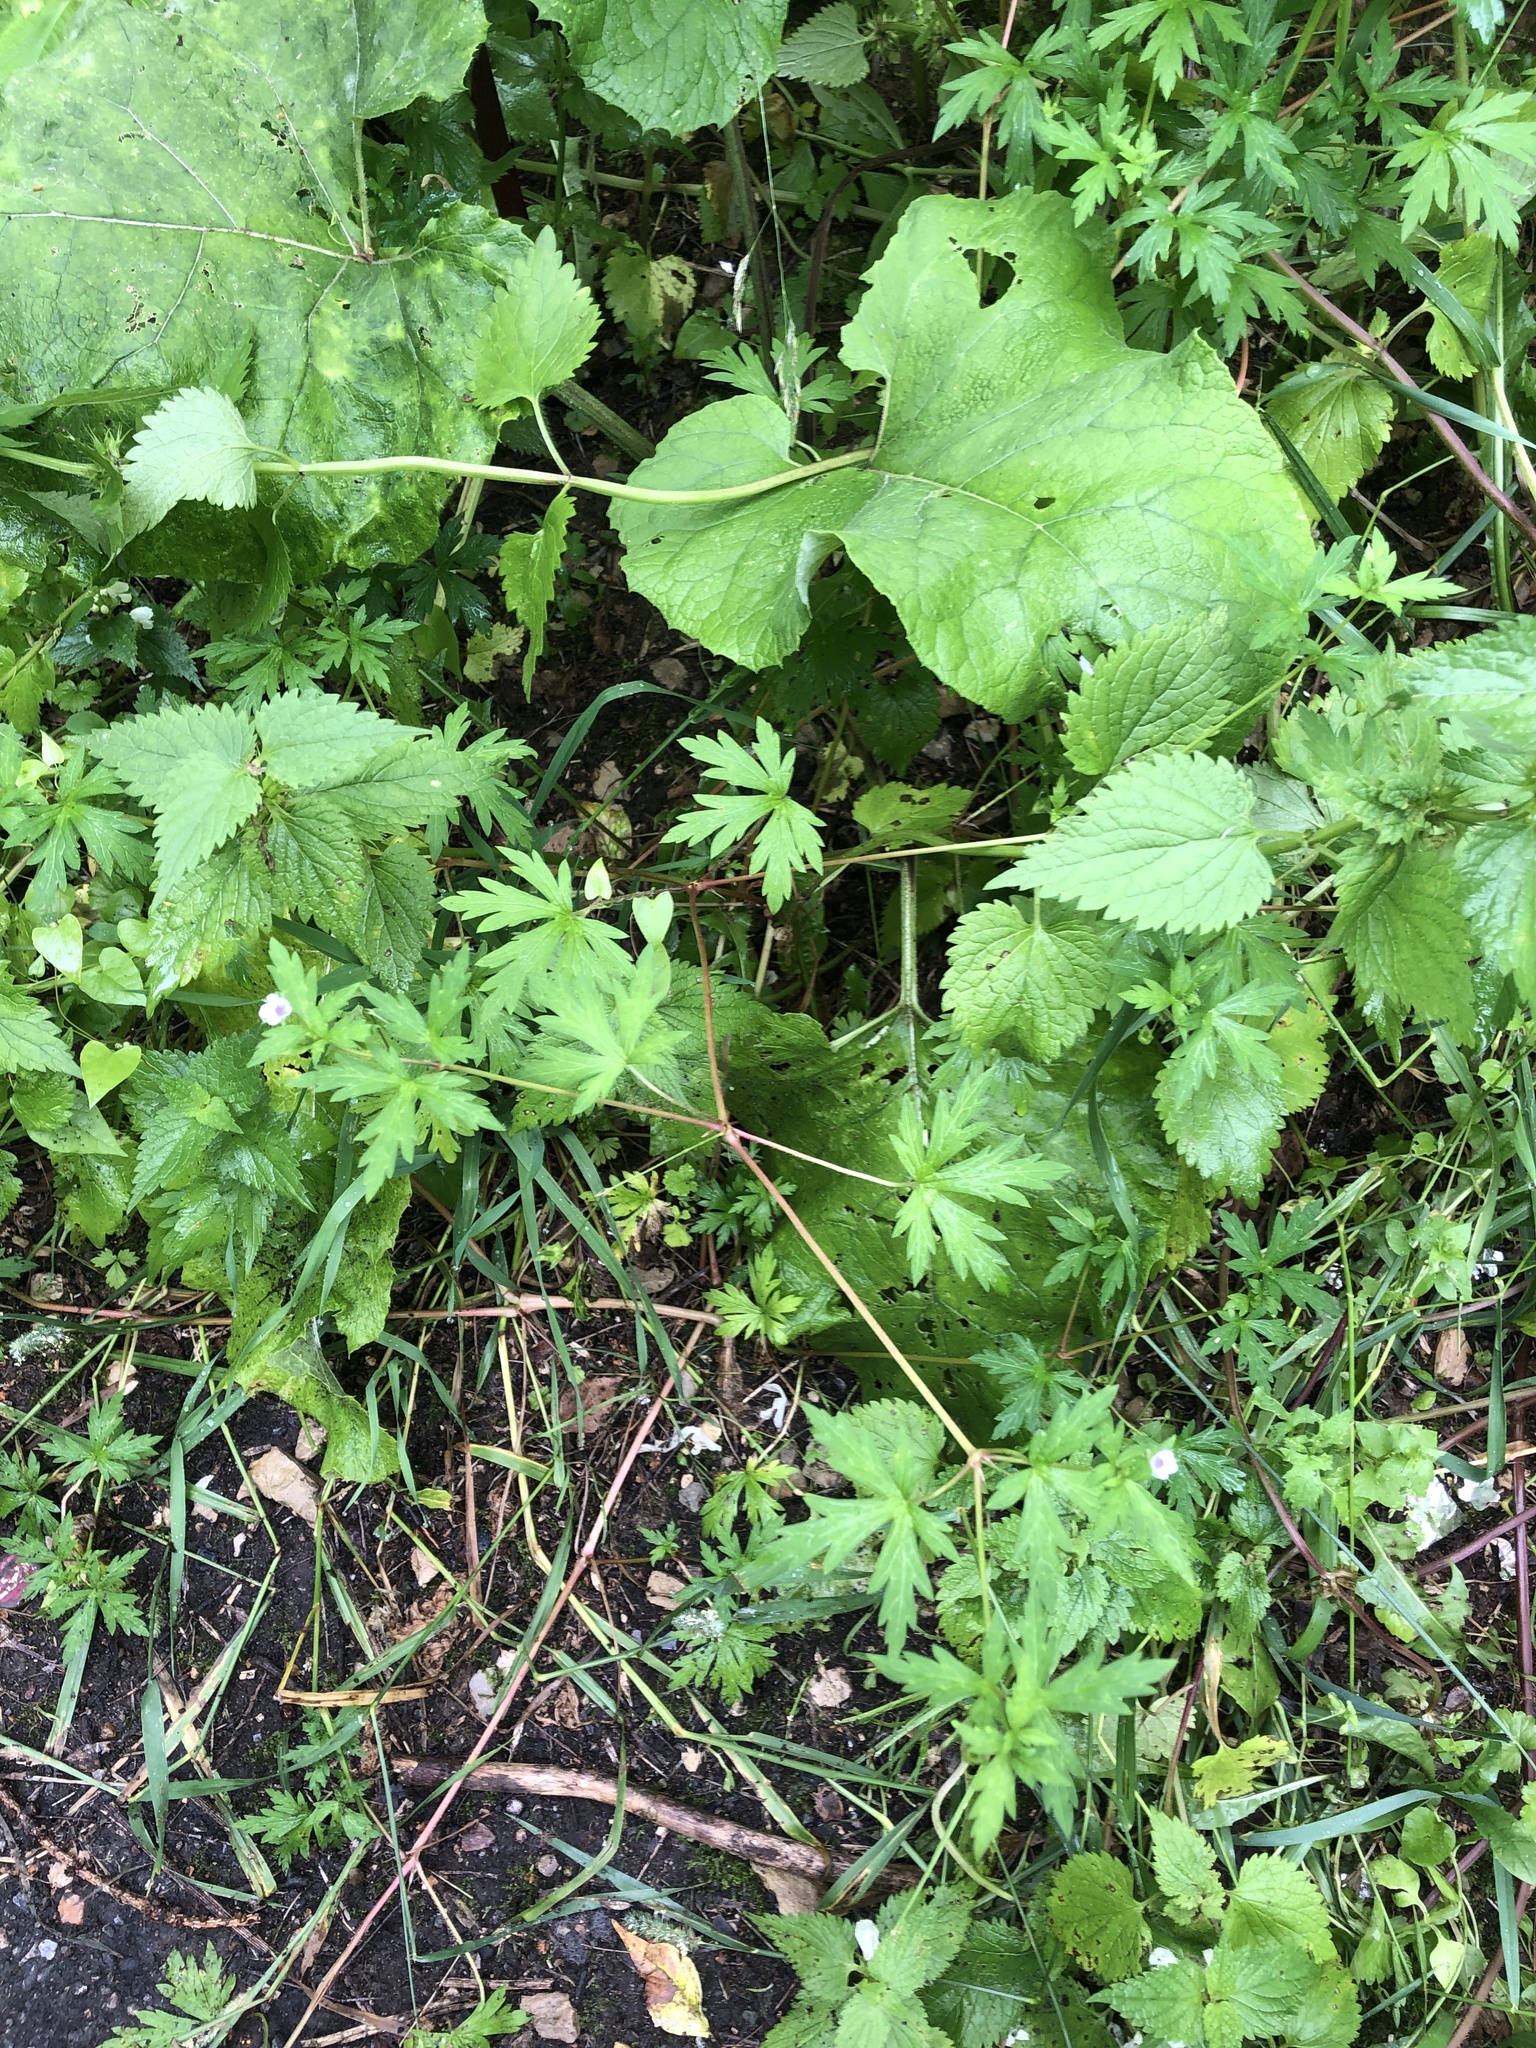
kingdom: Plantae
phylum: Tracheophyta
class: Magnoliopsida
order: Geraniales
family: Geraniaceae
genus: Geranium
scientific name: Geranium sibiricum
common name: Siberian crane's-bill
